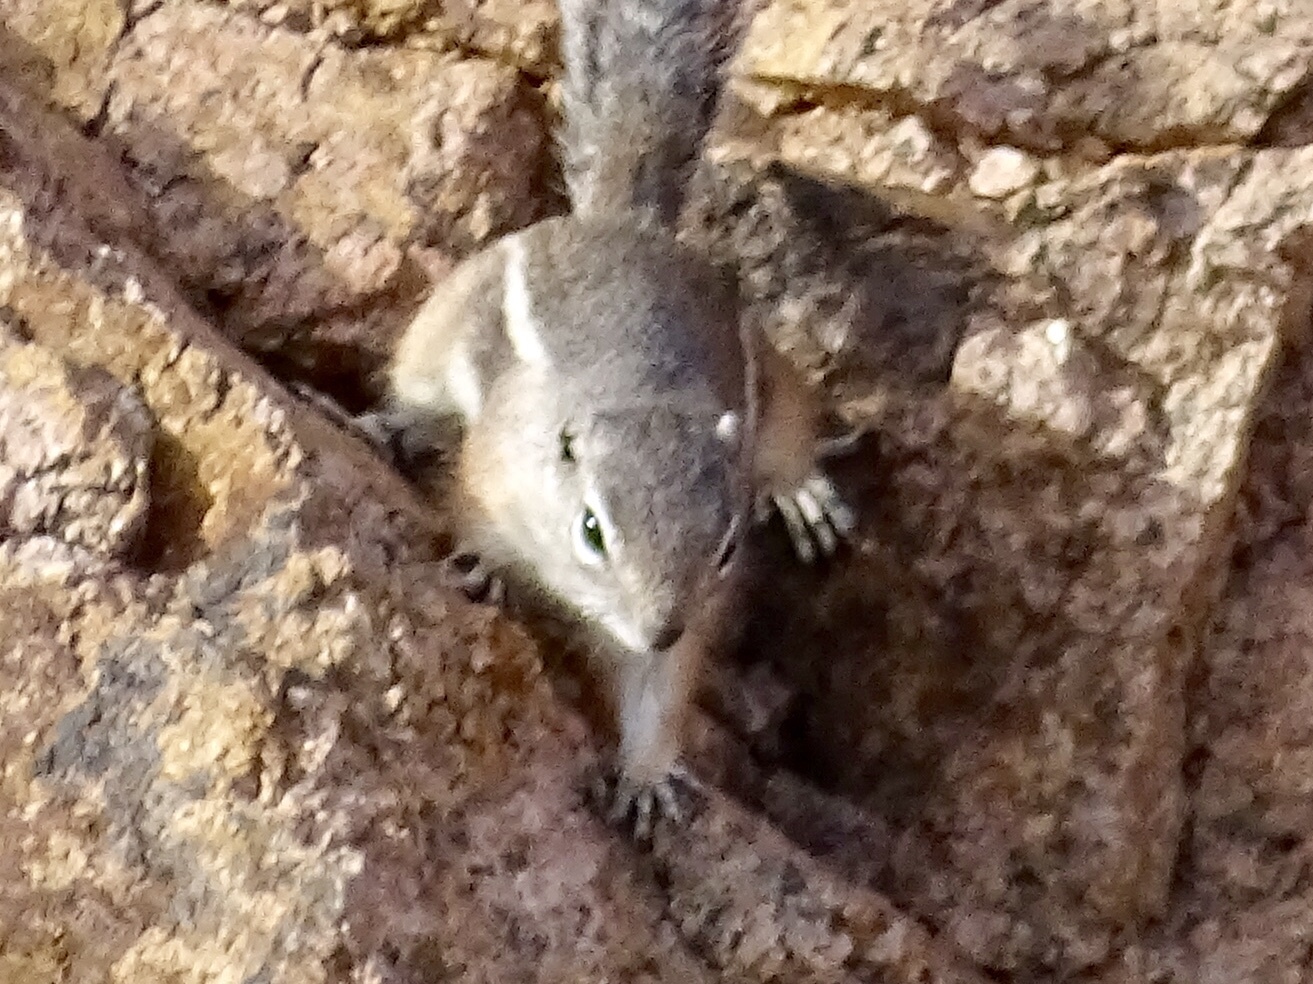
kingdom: Animalia
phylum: Chordata
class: Mammalia
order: Rodentia
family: Sciuridae
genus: Ammospermophilus
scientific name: Ammospermophilus interpres
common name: Texas antelope squirrel
